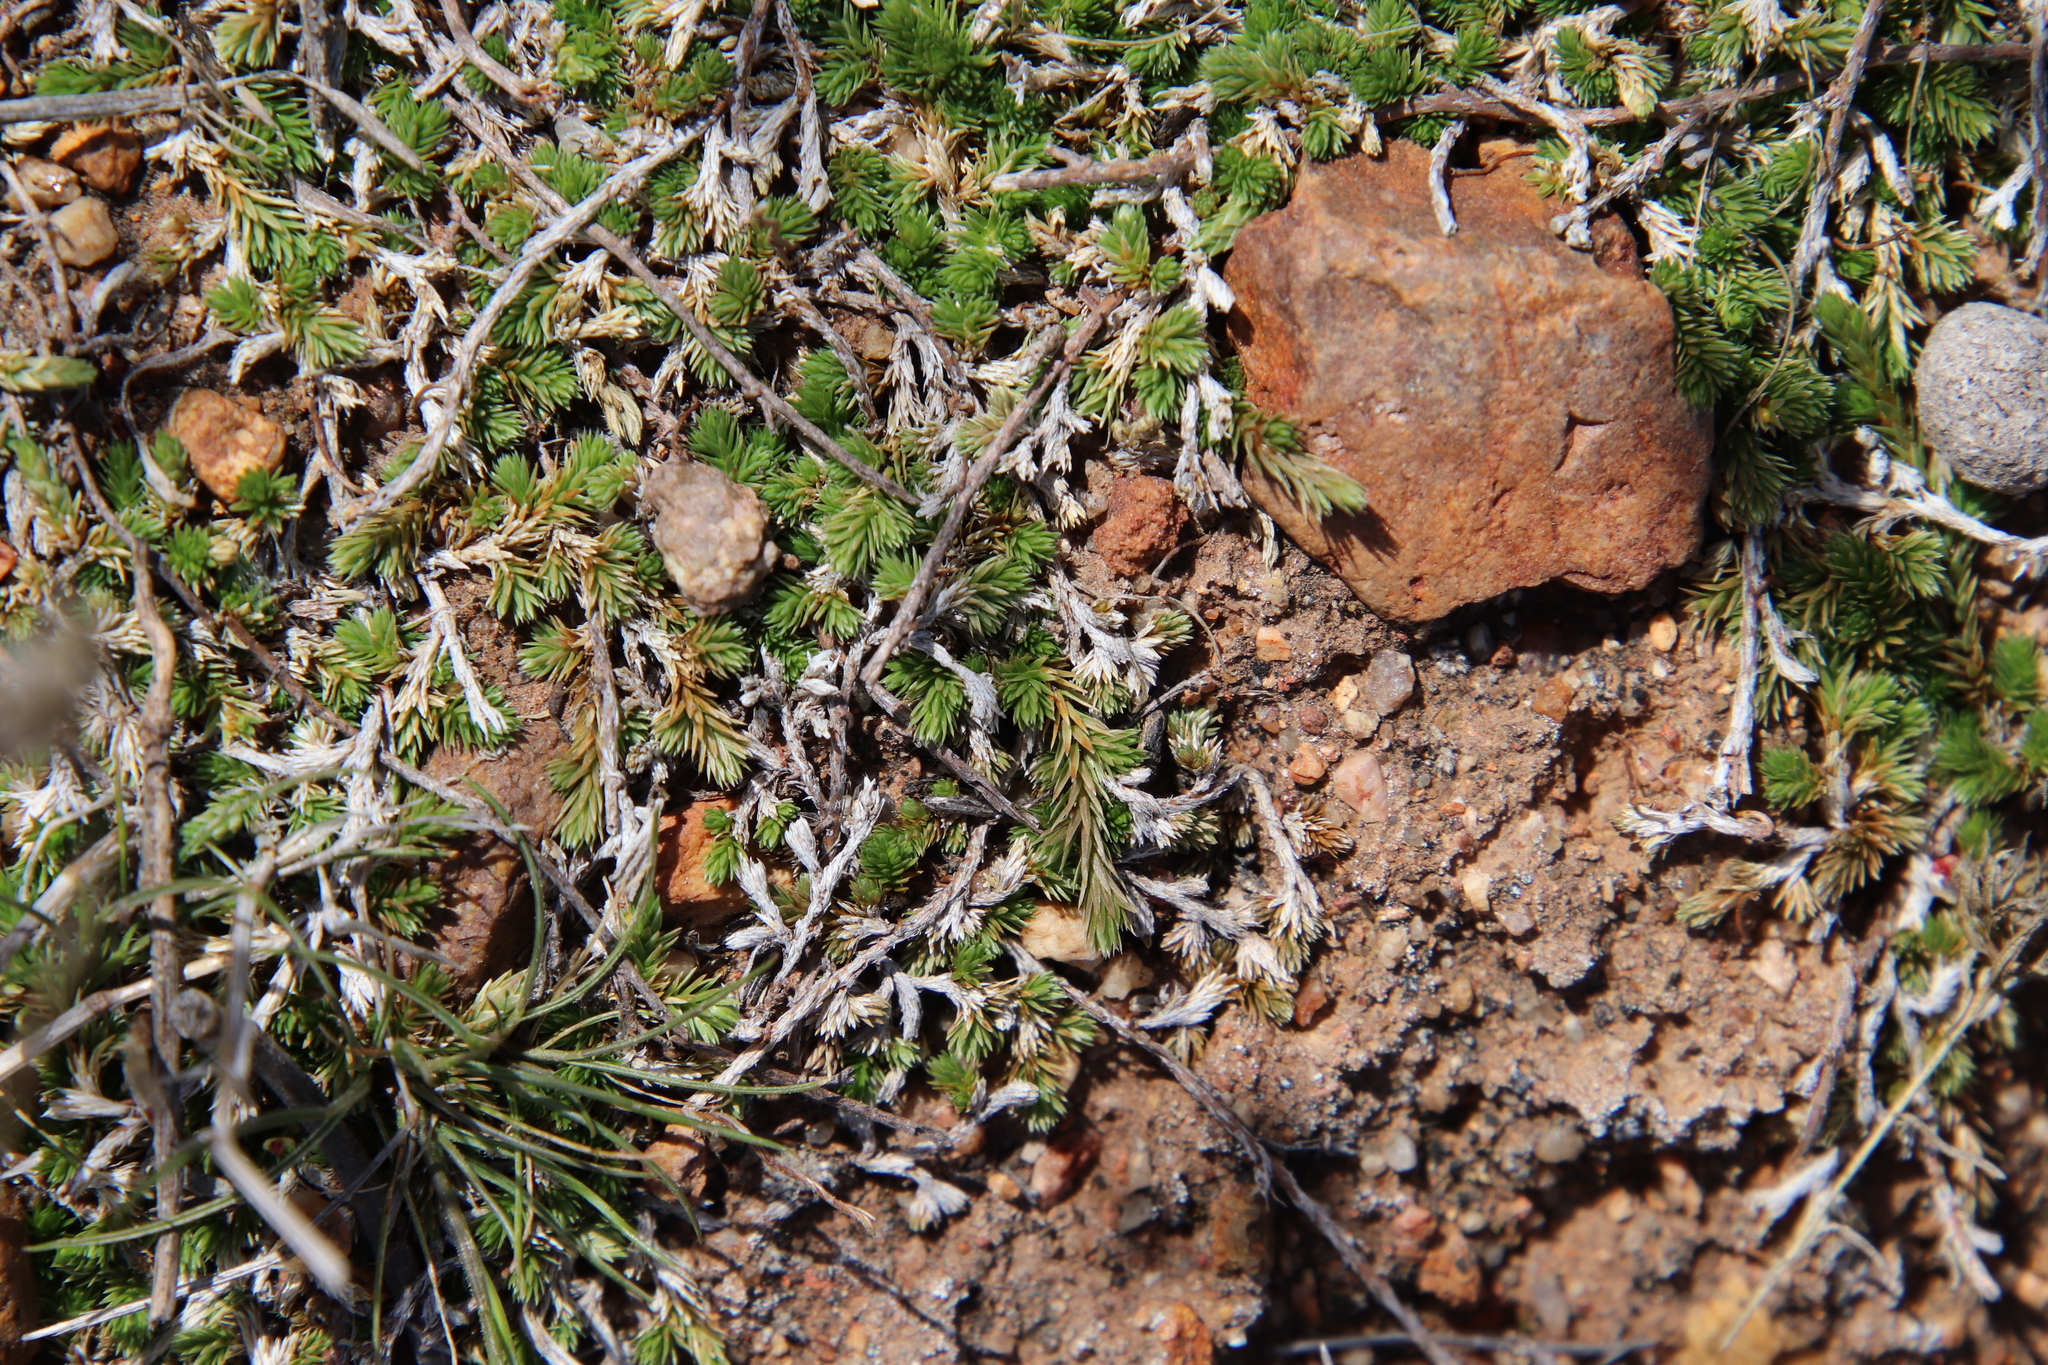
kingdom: Plantae
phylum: Tracheophyta
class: Lycopodiopsida
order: Selaginellales
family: Selaginellaceae
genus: Selaginella
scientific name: Selaginella cinerascens
